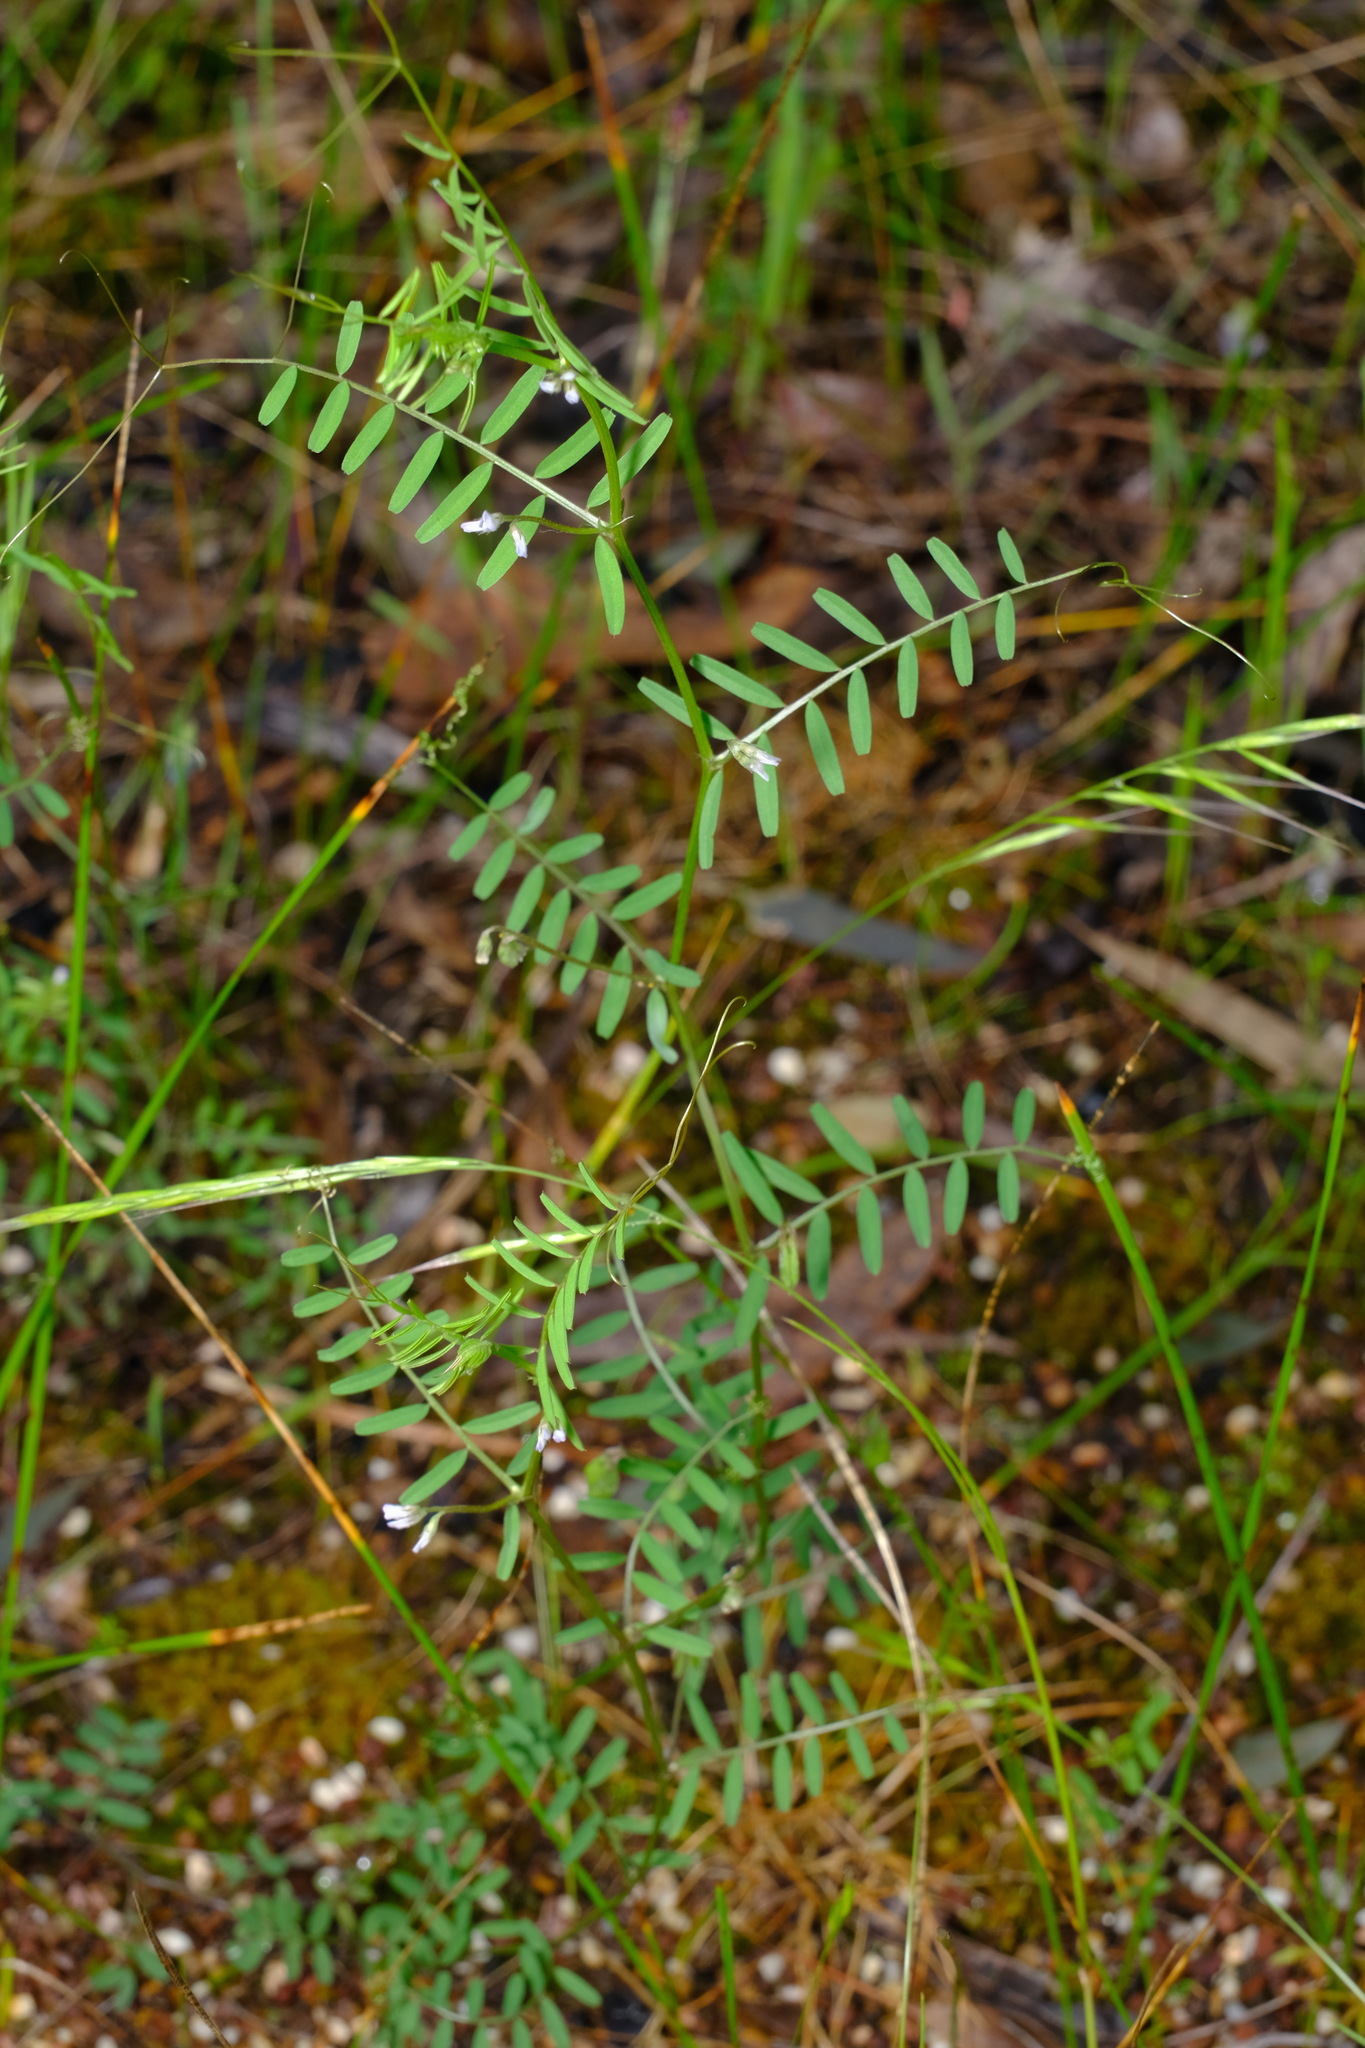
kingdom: Plantae
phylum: Tracheophyta
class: Magnoliopsida
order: Fabales
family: Fabaceae
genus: Vicia
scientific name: Vicia hirsuta
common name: Tiny vetch
